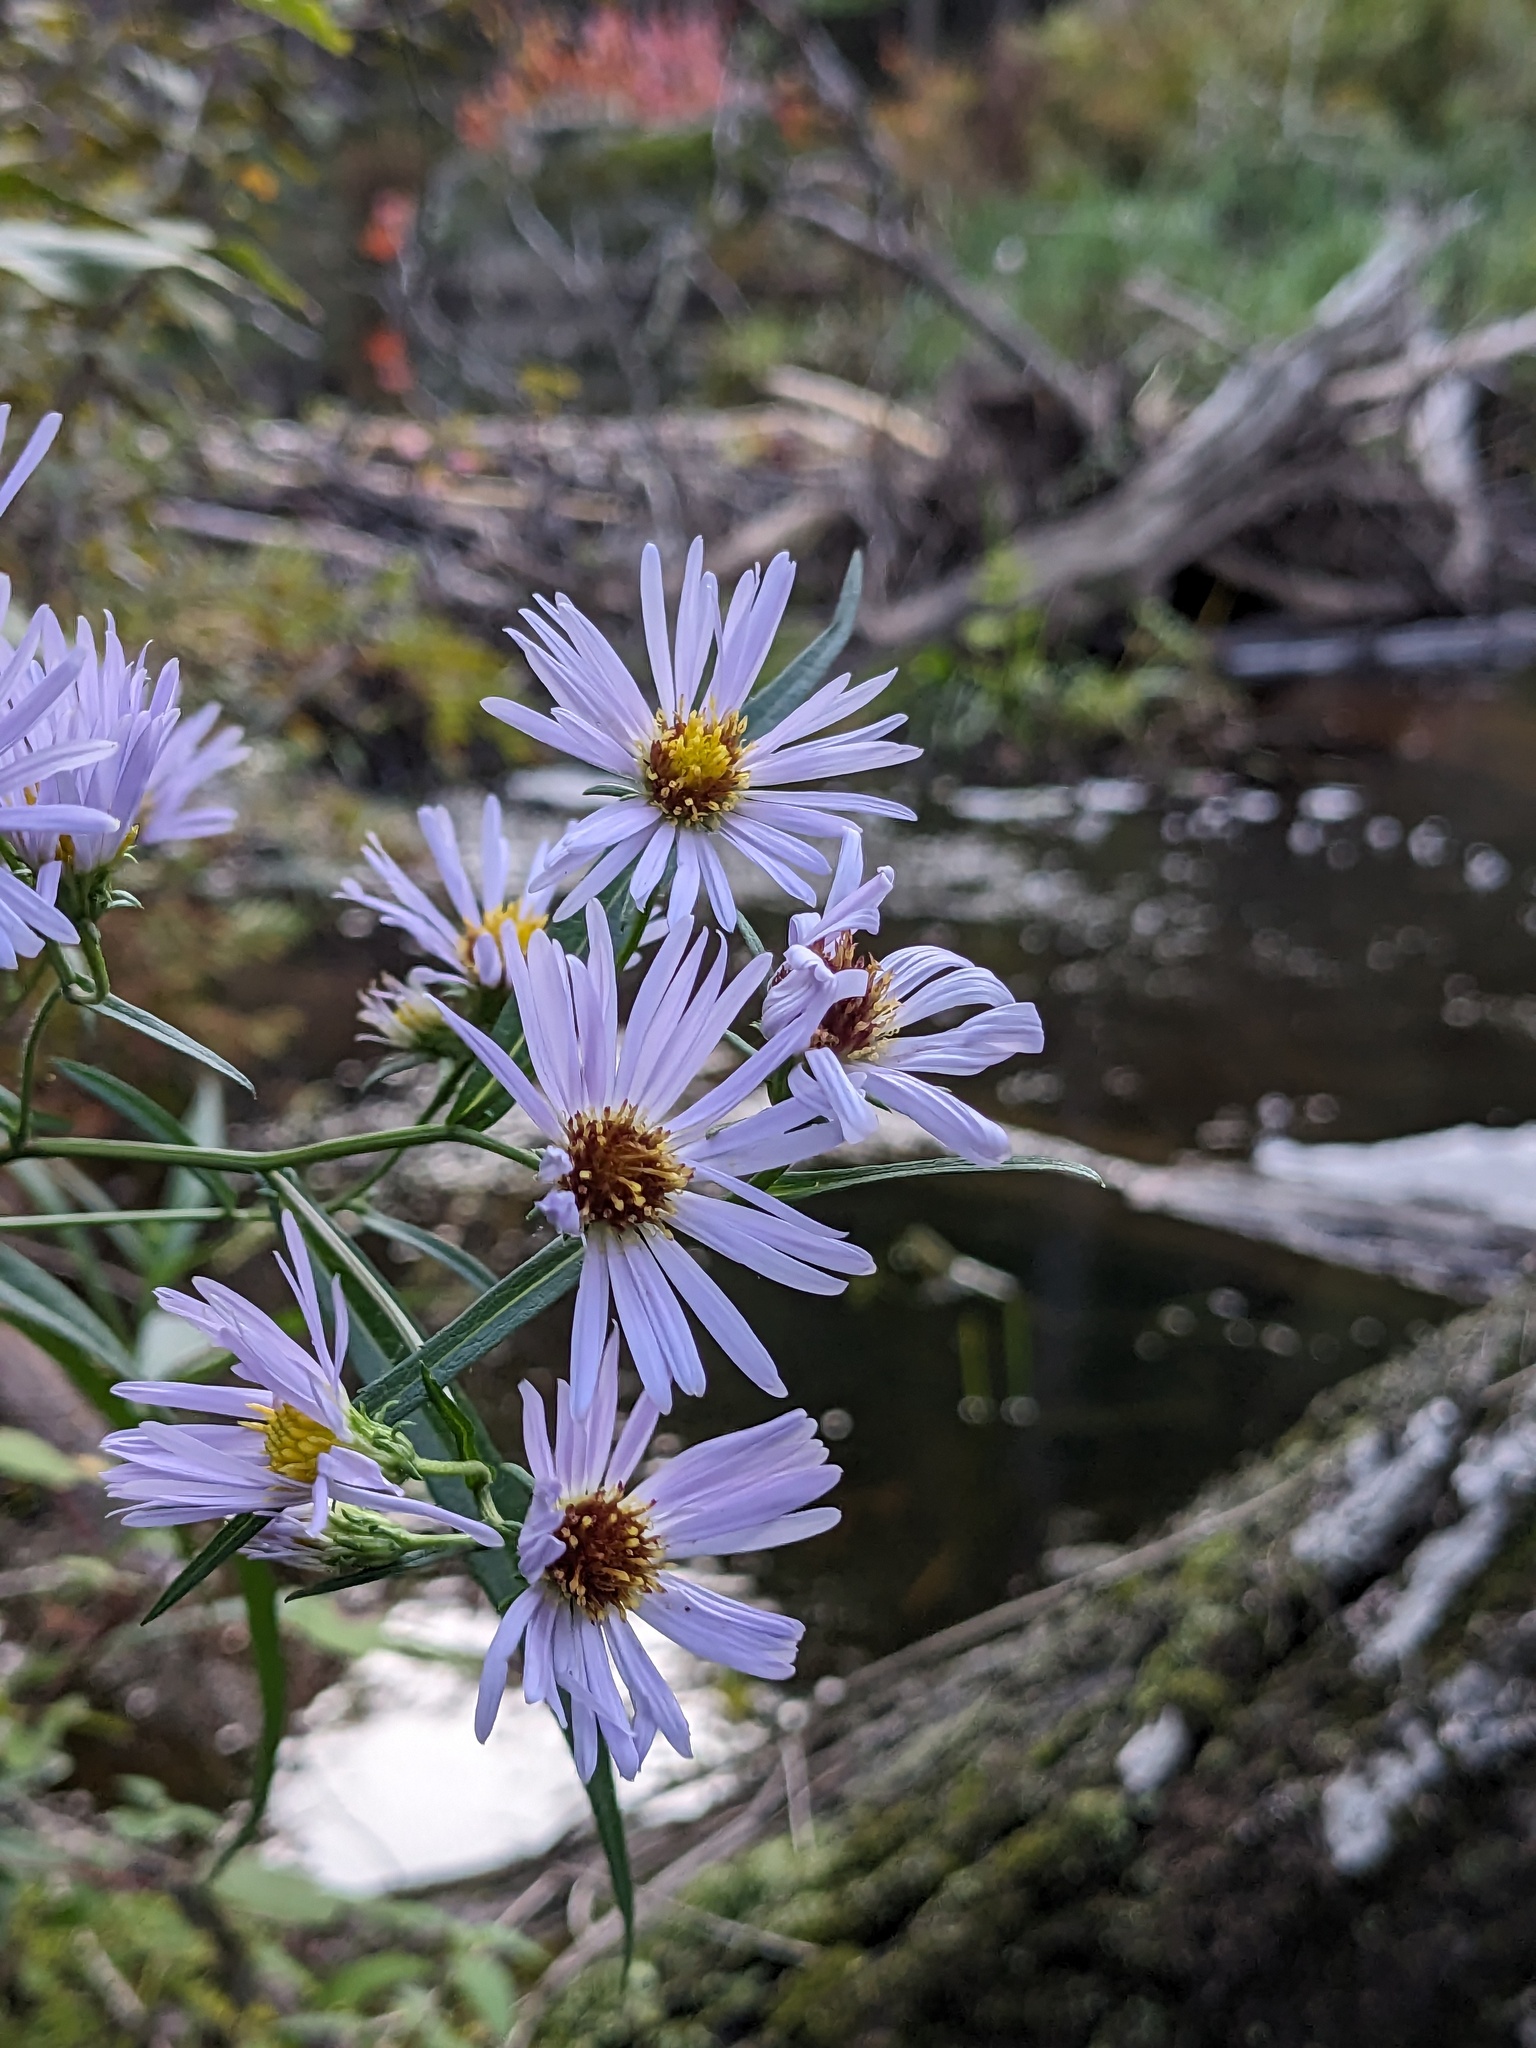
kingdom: Plantae
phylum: Tracheophyta
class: Magnoliopsida
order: Asterales
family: Asteraceae
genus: Symphyotrichum
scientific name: Symphyotrichum puniceum
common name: Bog aster
